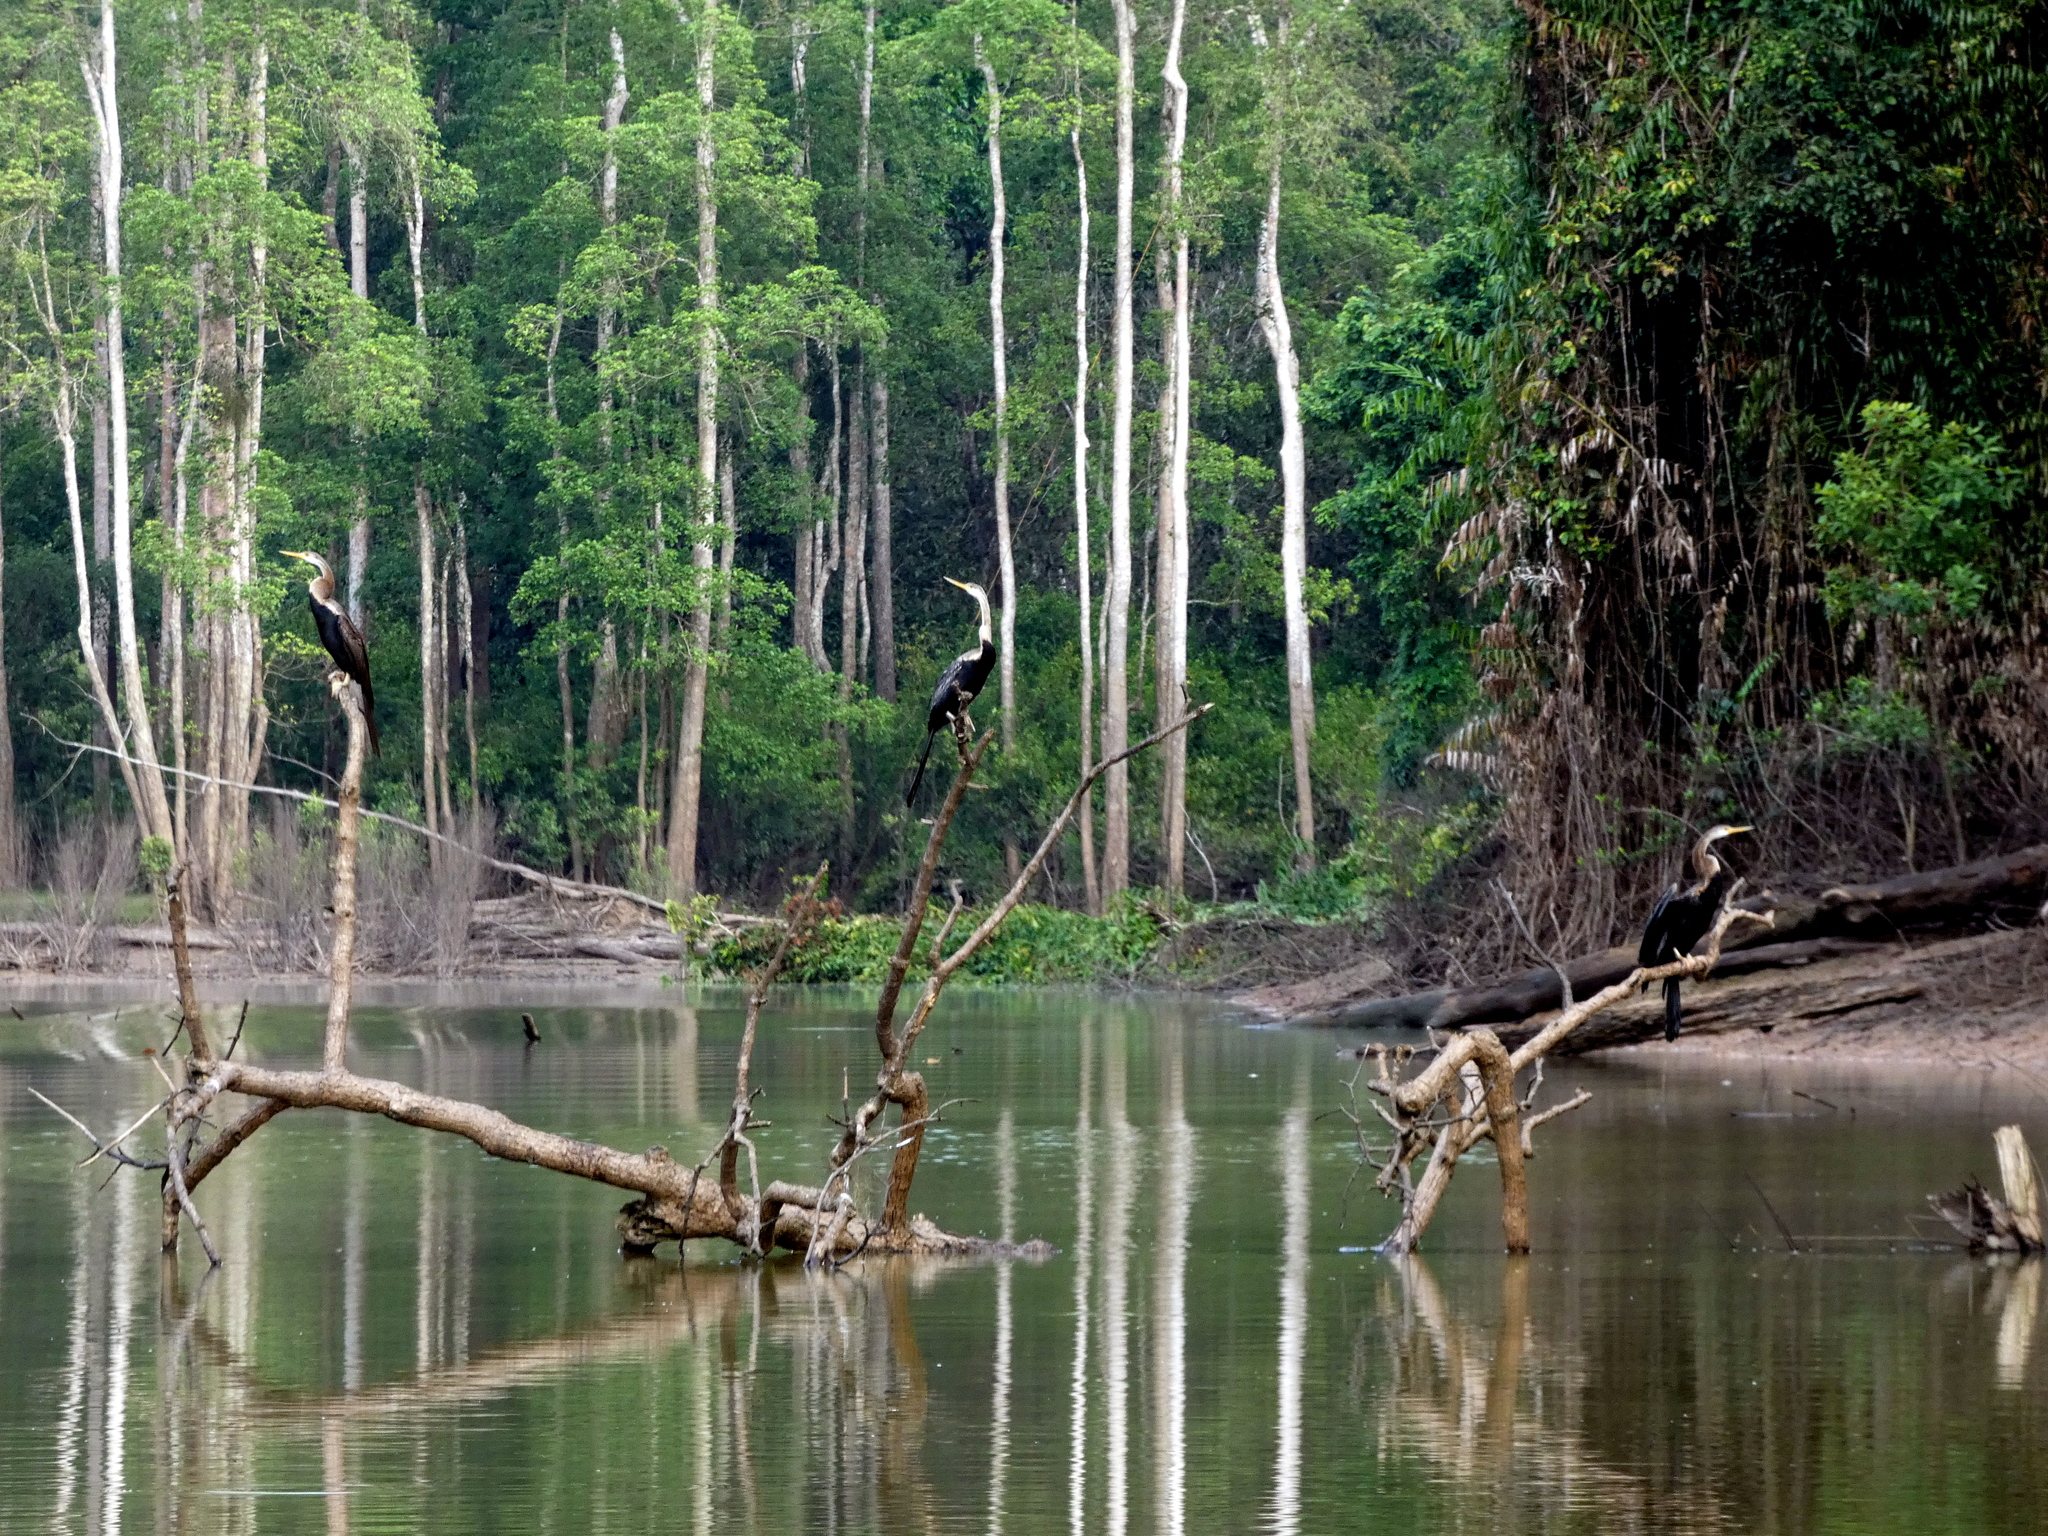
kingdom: Animalia
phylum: Chordata
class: Aves
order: Suliformes
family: Anhingidae
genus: Anhinga
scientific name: Anhinga melanogaster
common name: Oriental darter
